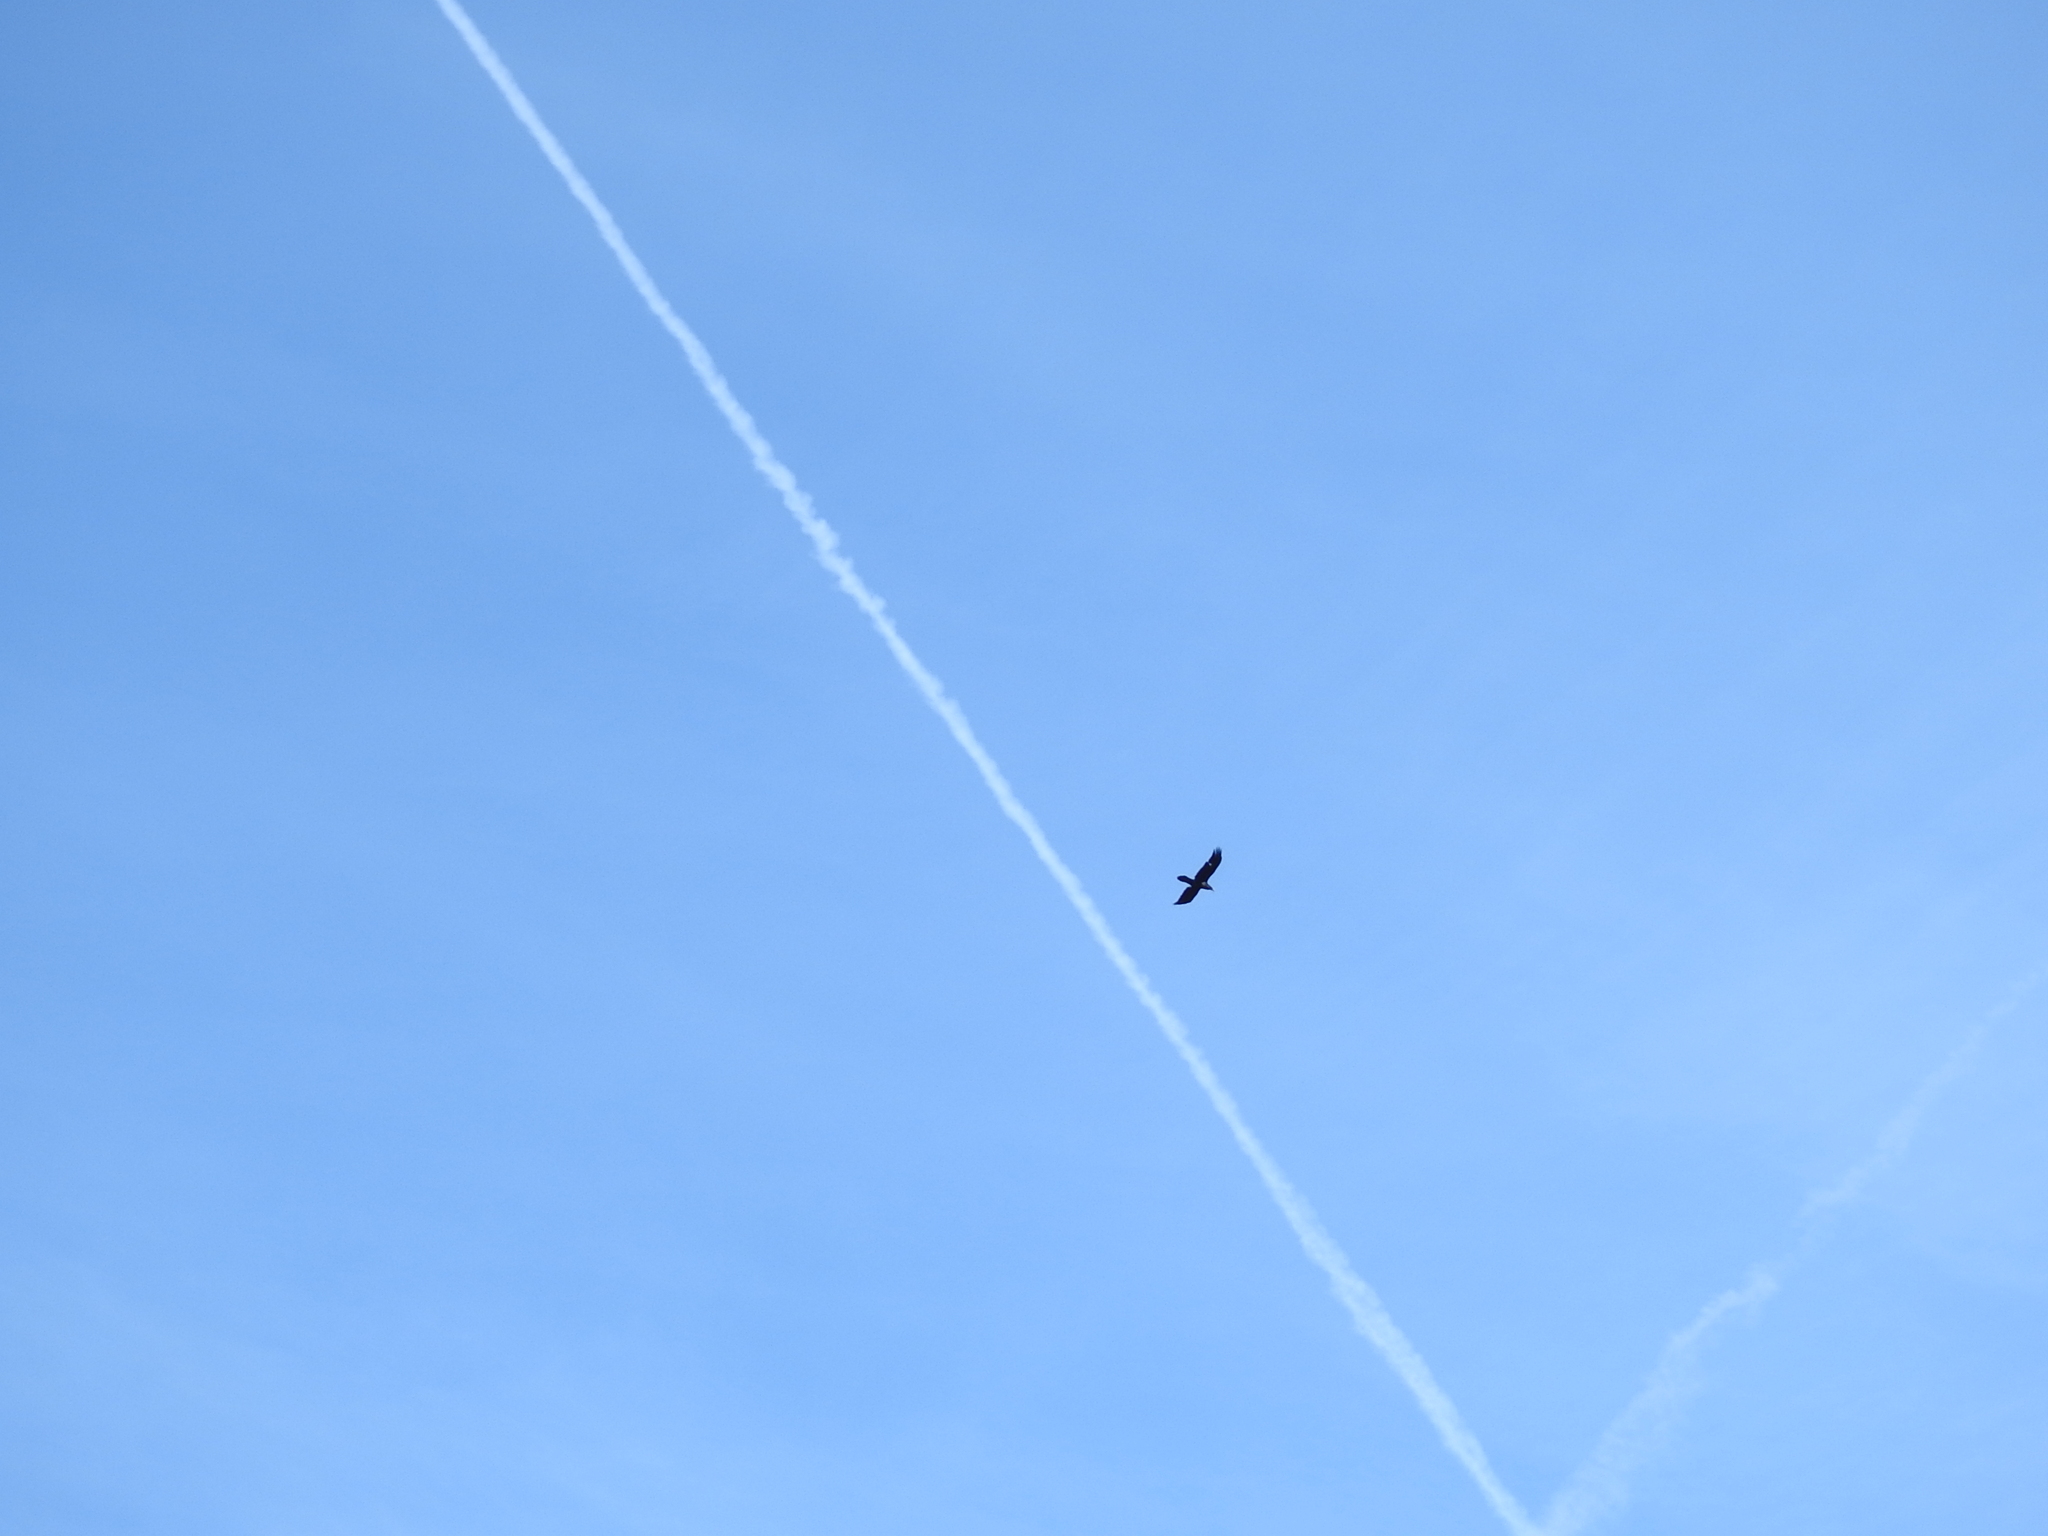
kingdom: Animalia
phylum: Chordata
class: Aves
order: Passeriformes
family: Corvidae
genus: Corvus
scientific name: Corvus corax
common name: Common raven
